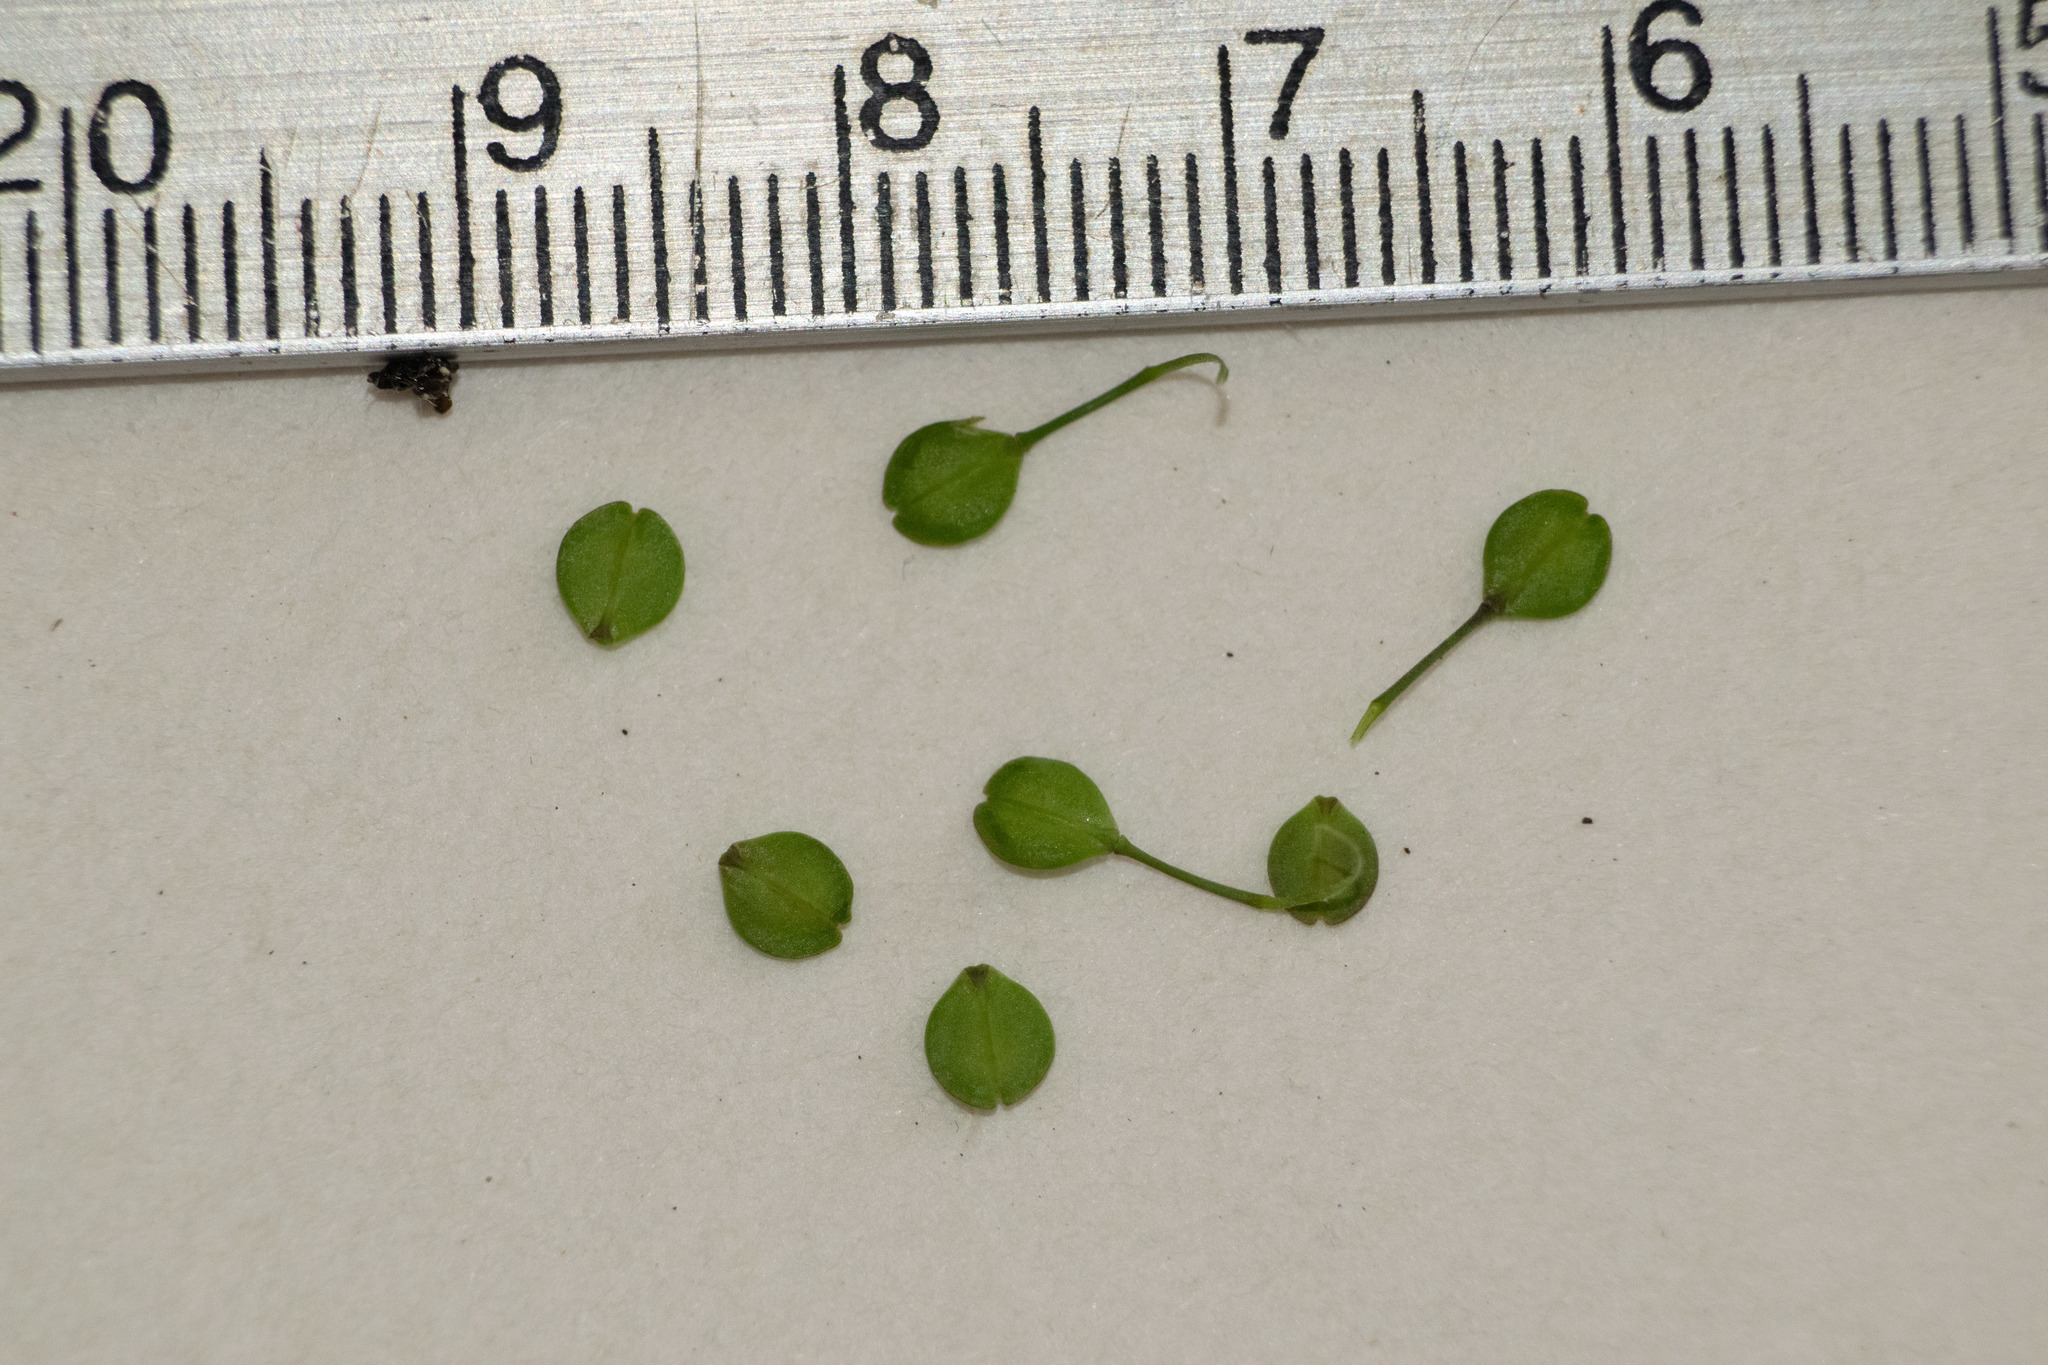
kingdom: Plantae
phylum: Tracheophyta
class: Magnoliopsida
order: Brassicales
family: Brassicaceae
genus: Lepidium
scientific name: Lepidium virginicum
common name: Least pepperwort
